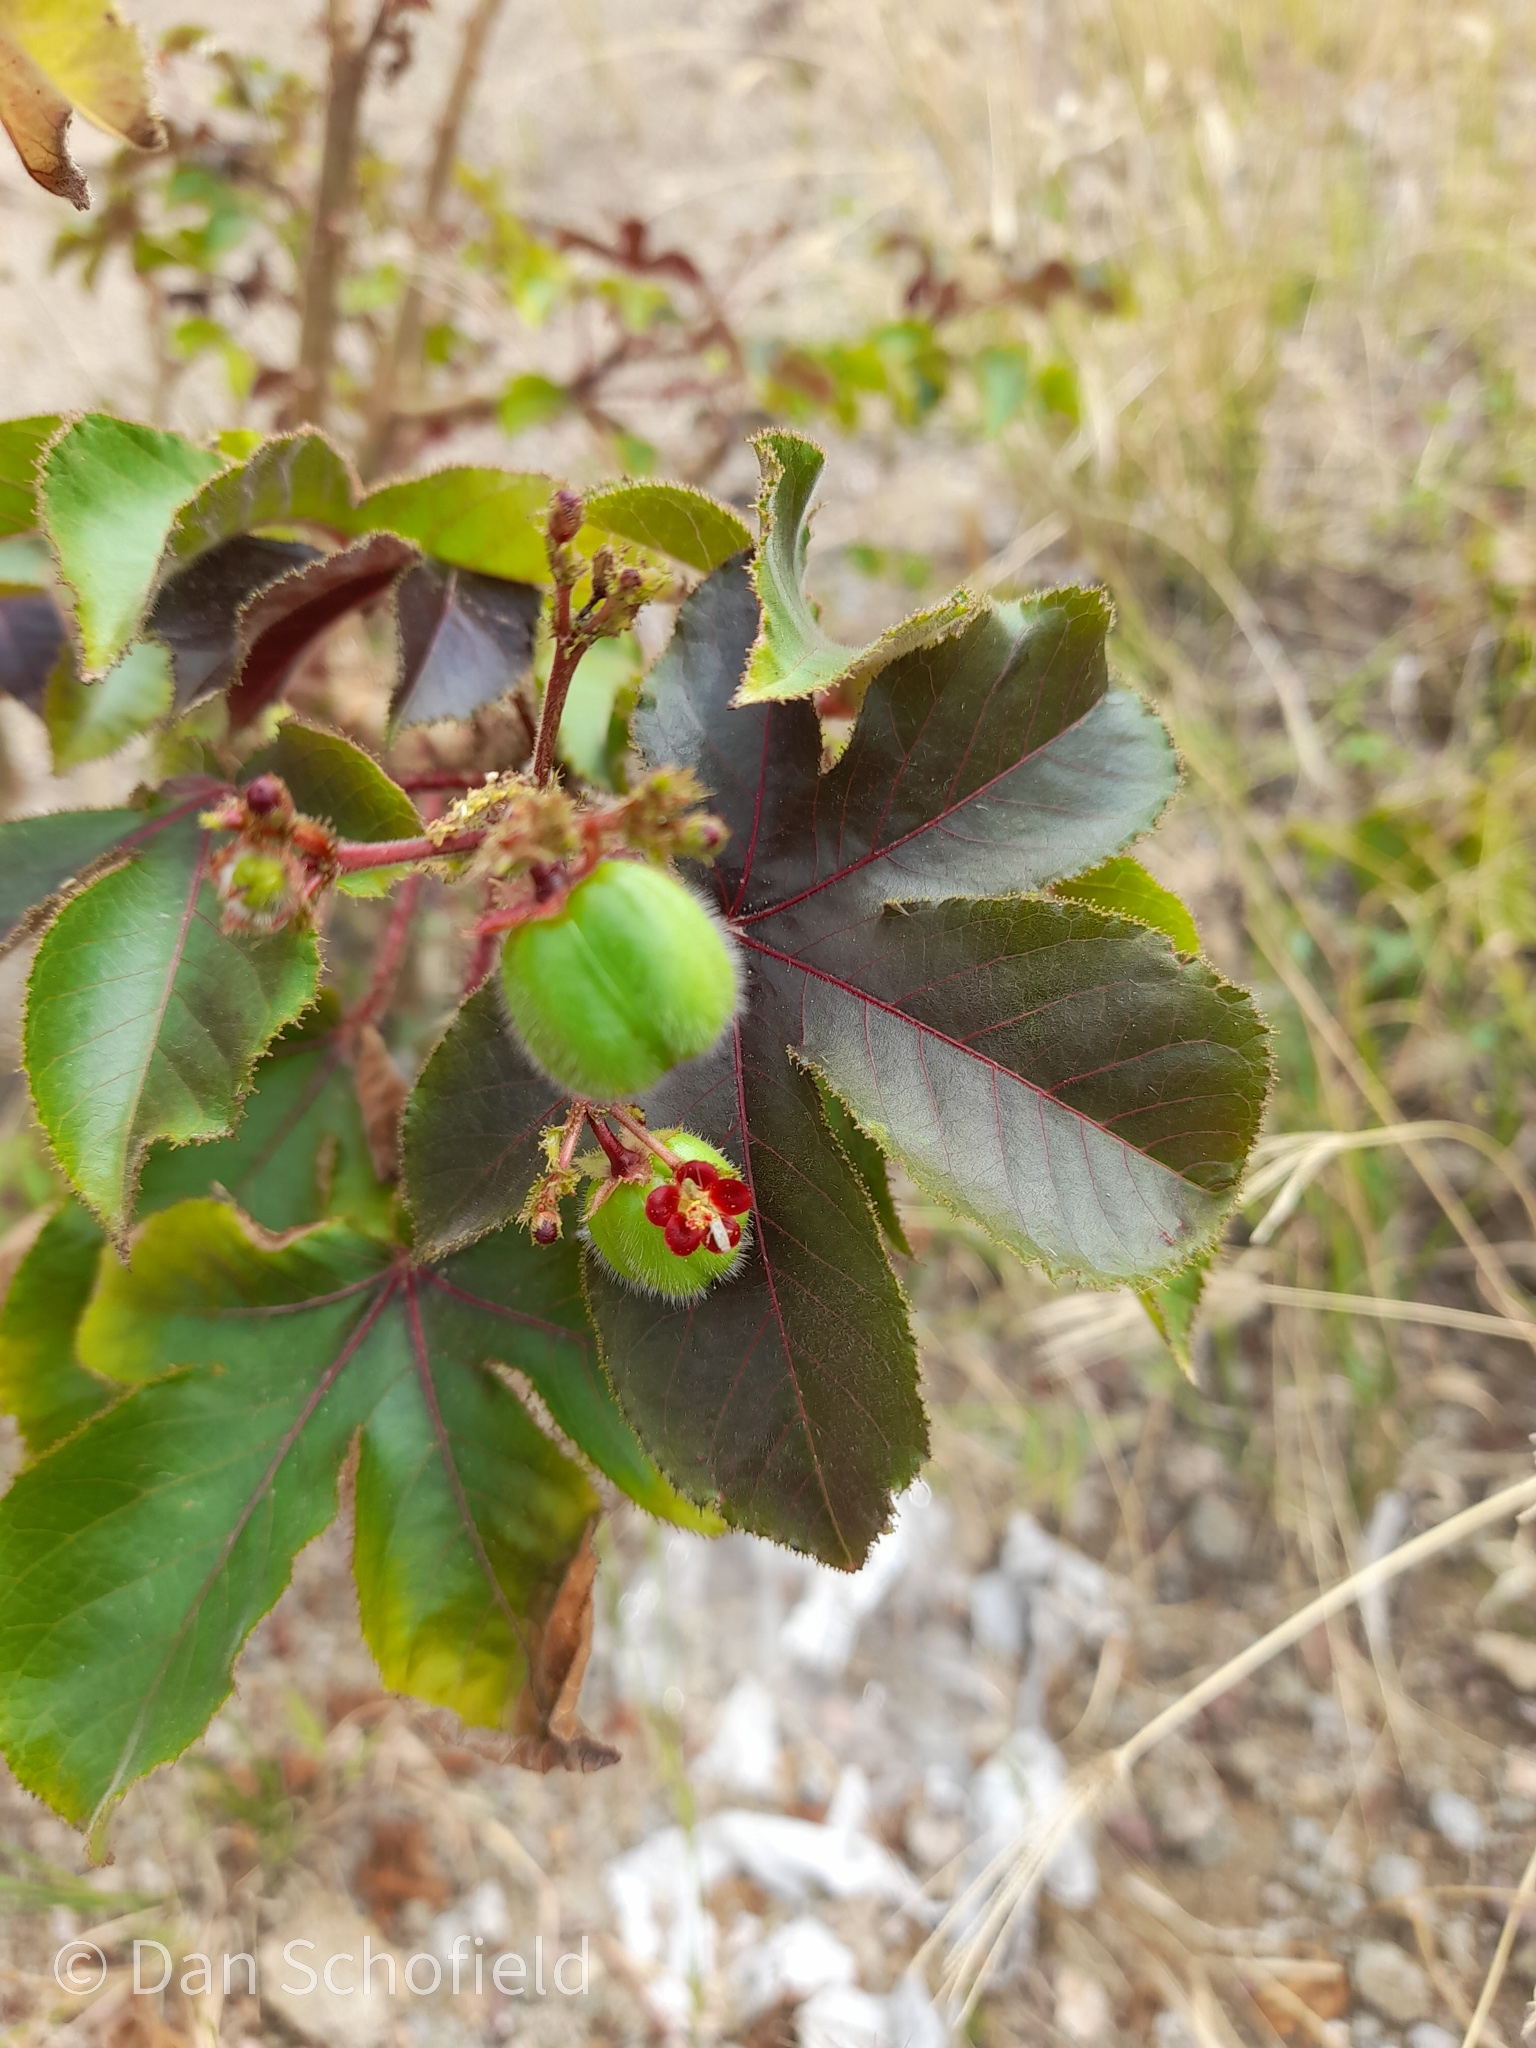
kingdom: Plantae
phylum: Tracheophyta
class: Magnoliopsida
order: Malpighiales
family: Euphorbiaceae
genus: Jatropha
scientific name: Jatropha gossypiifolia
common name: Bellyache bush
